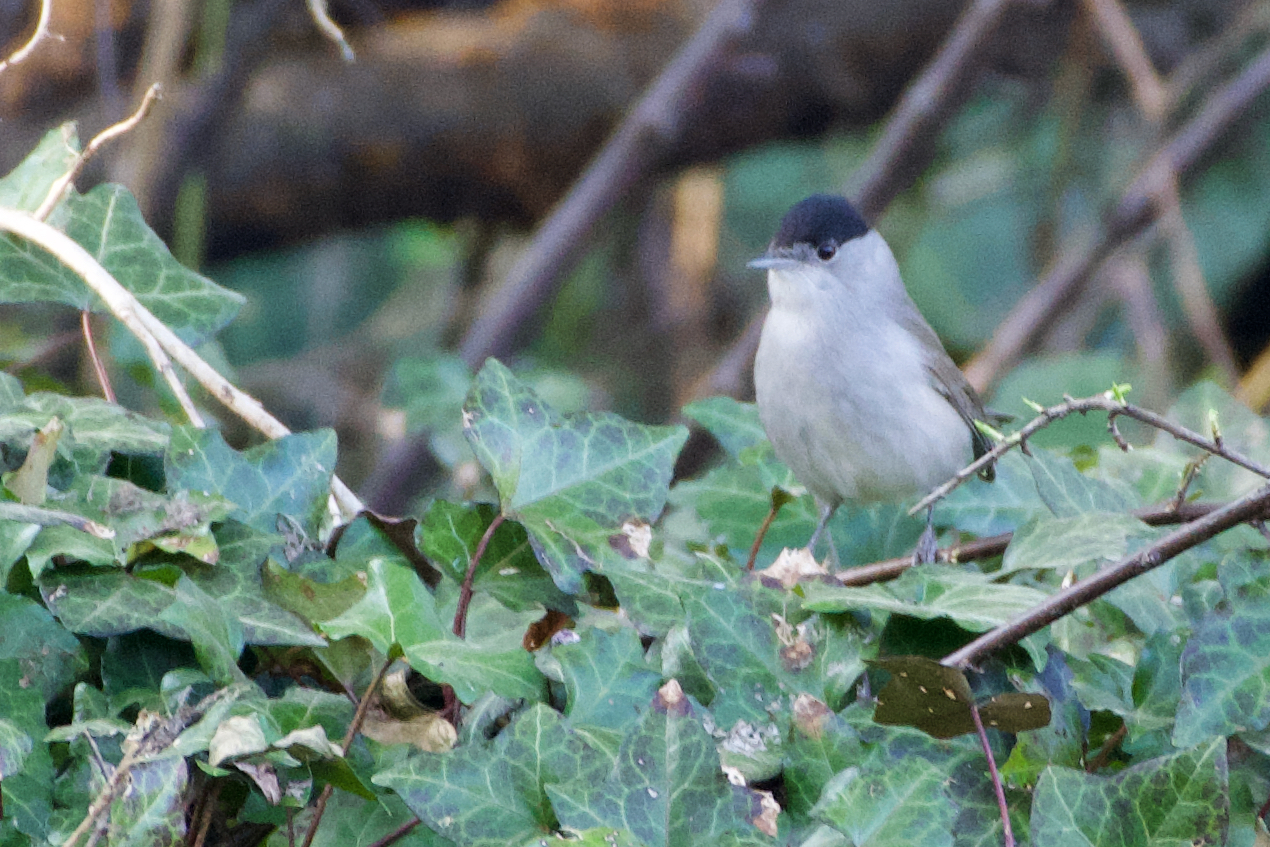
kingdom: Animalia
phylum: Chordata
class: Aves
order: Passeriformes
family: Sylviidae
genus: Sylvia
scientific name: Sylvia atricapilla
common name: Eurasian blackcap
